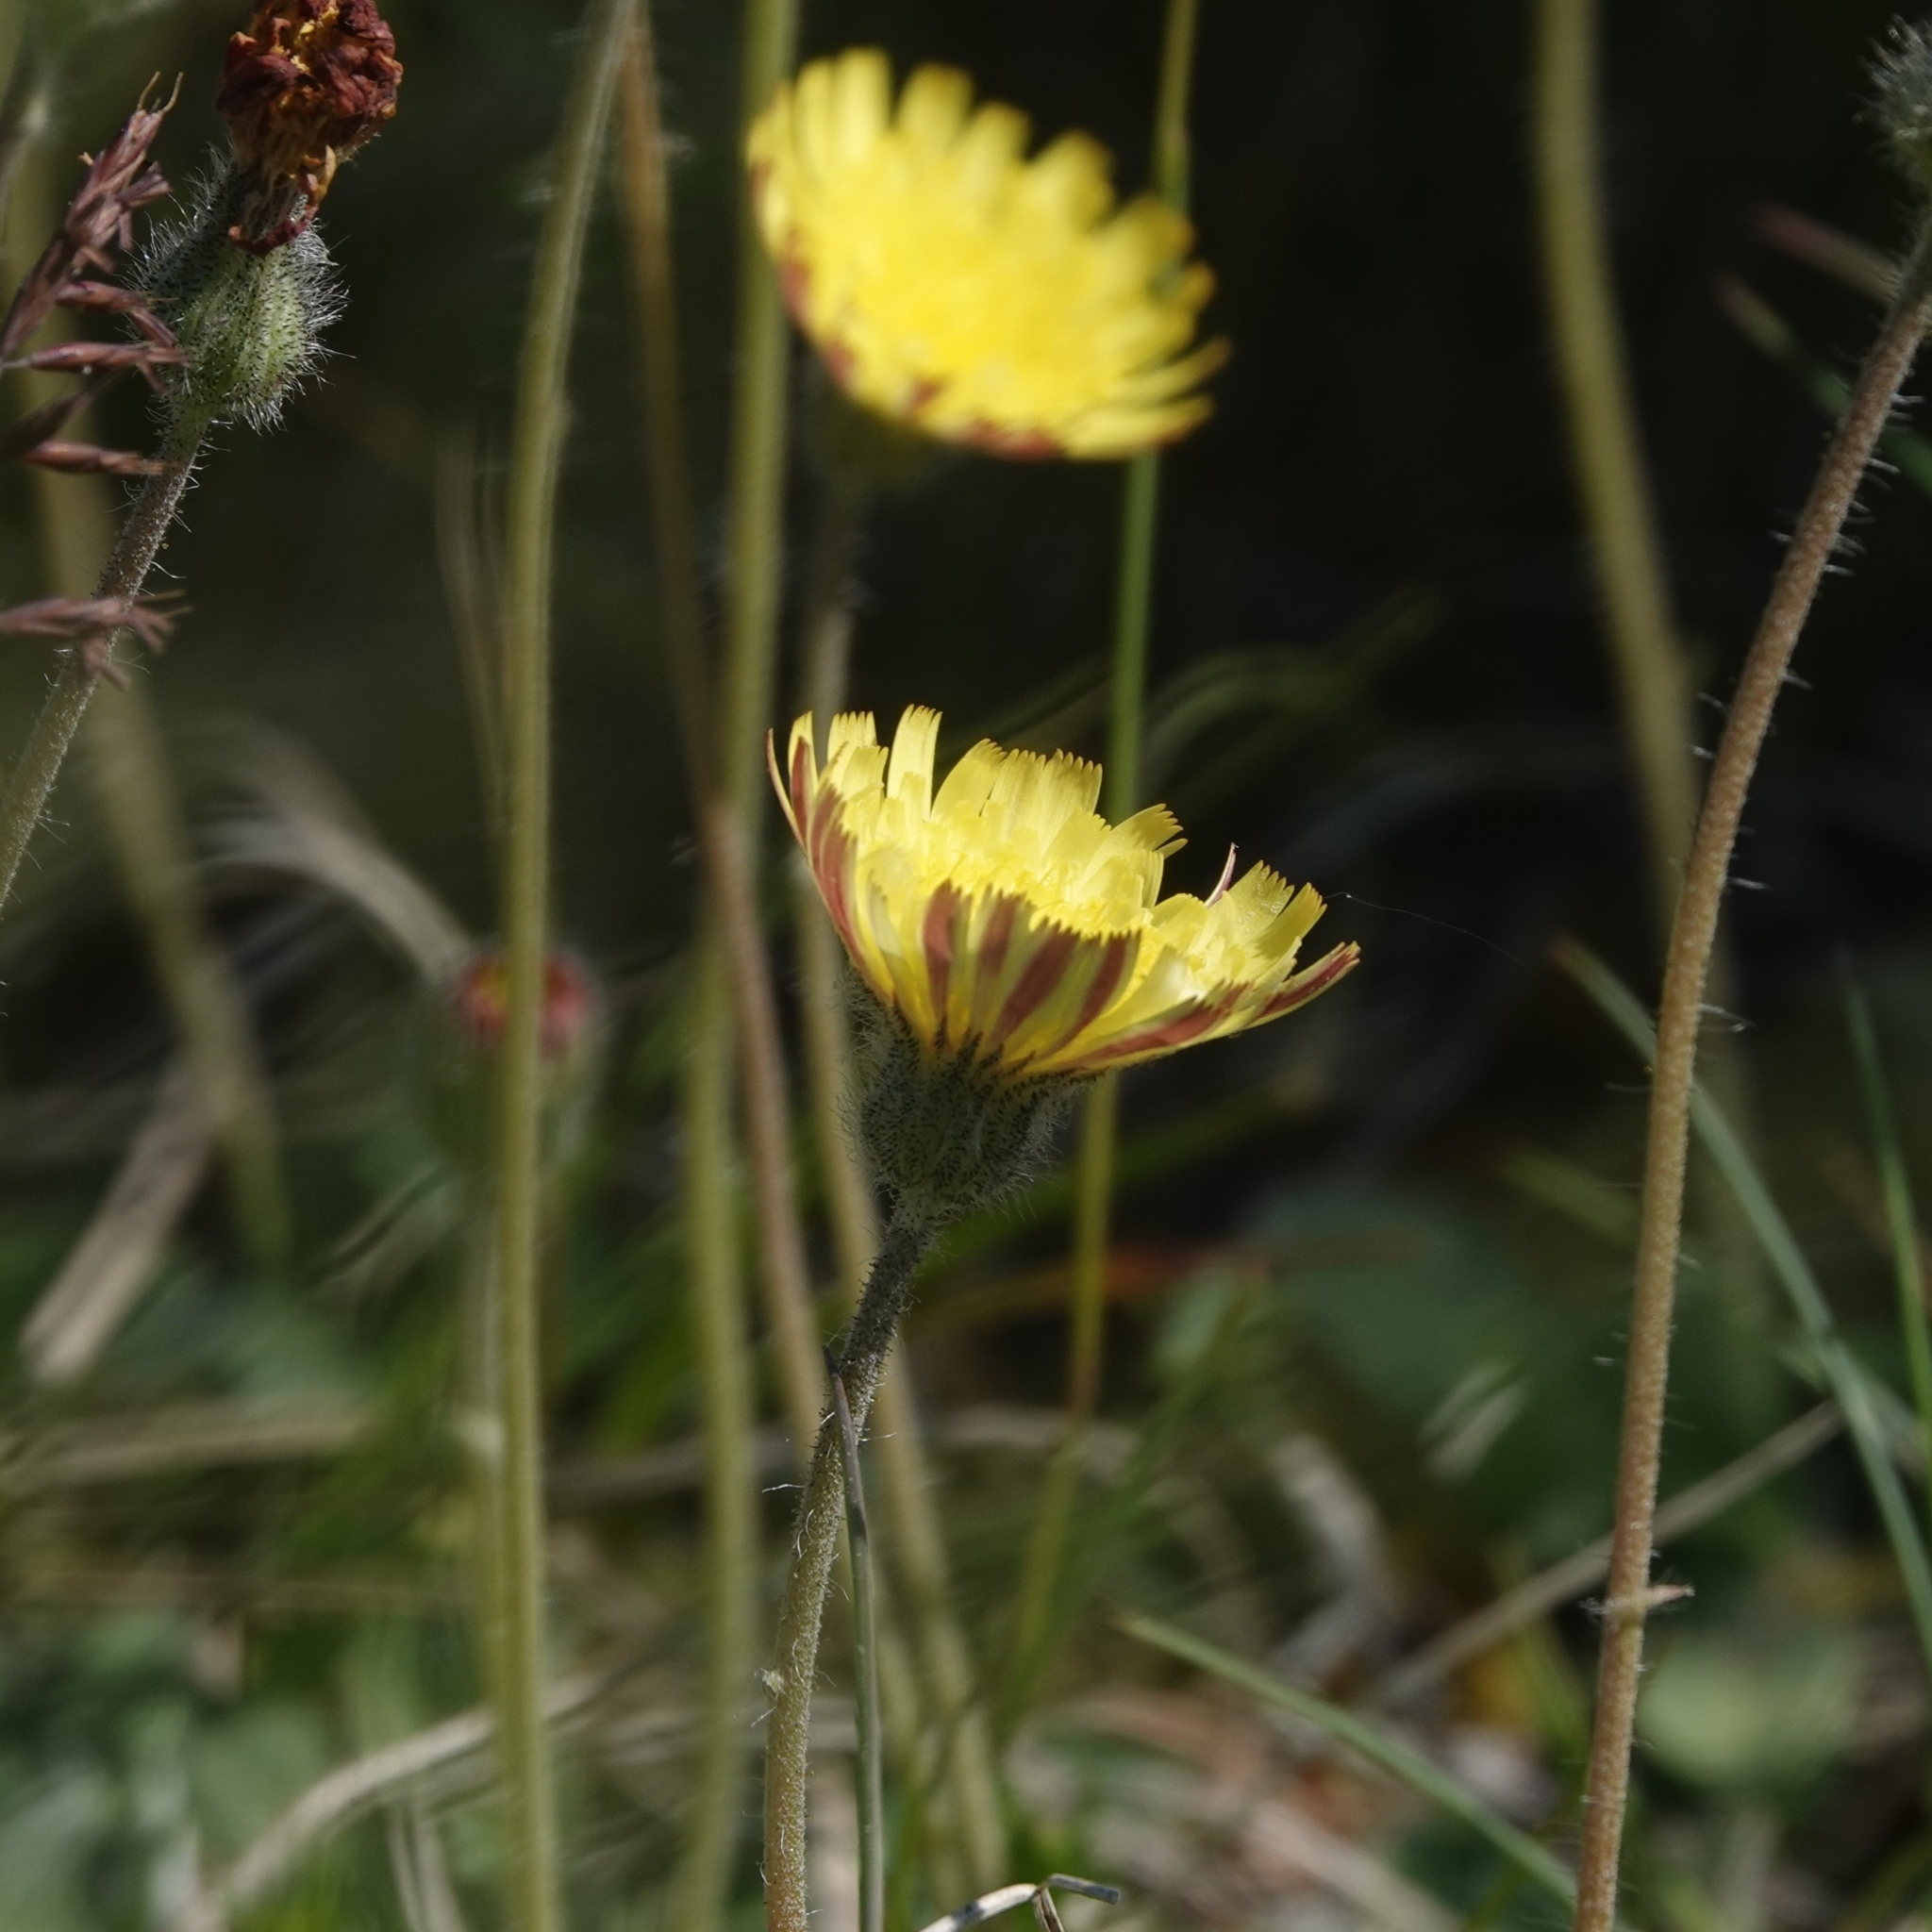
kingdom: Plantae
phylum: Tracheophyta
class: Magnoliopsida
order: Asterales
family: Asteraceae
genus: Pilosella
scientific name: Pilosella officinarum
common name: Mouse-ear hawkweed
